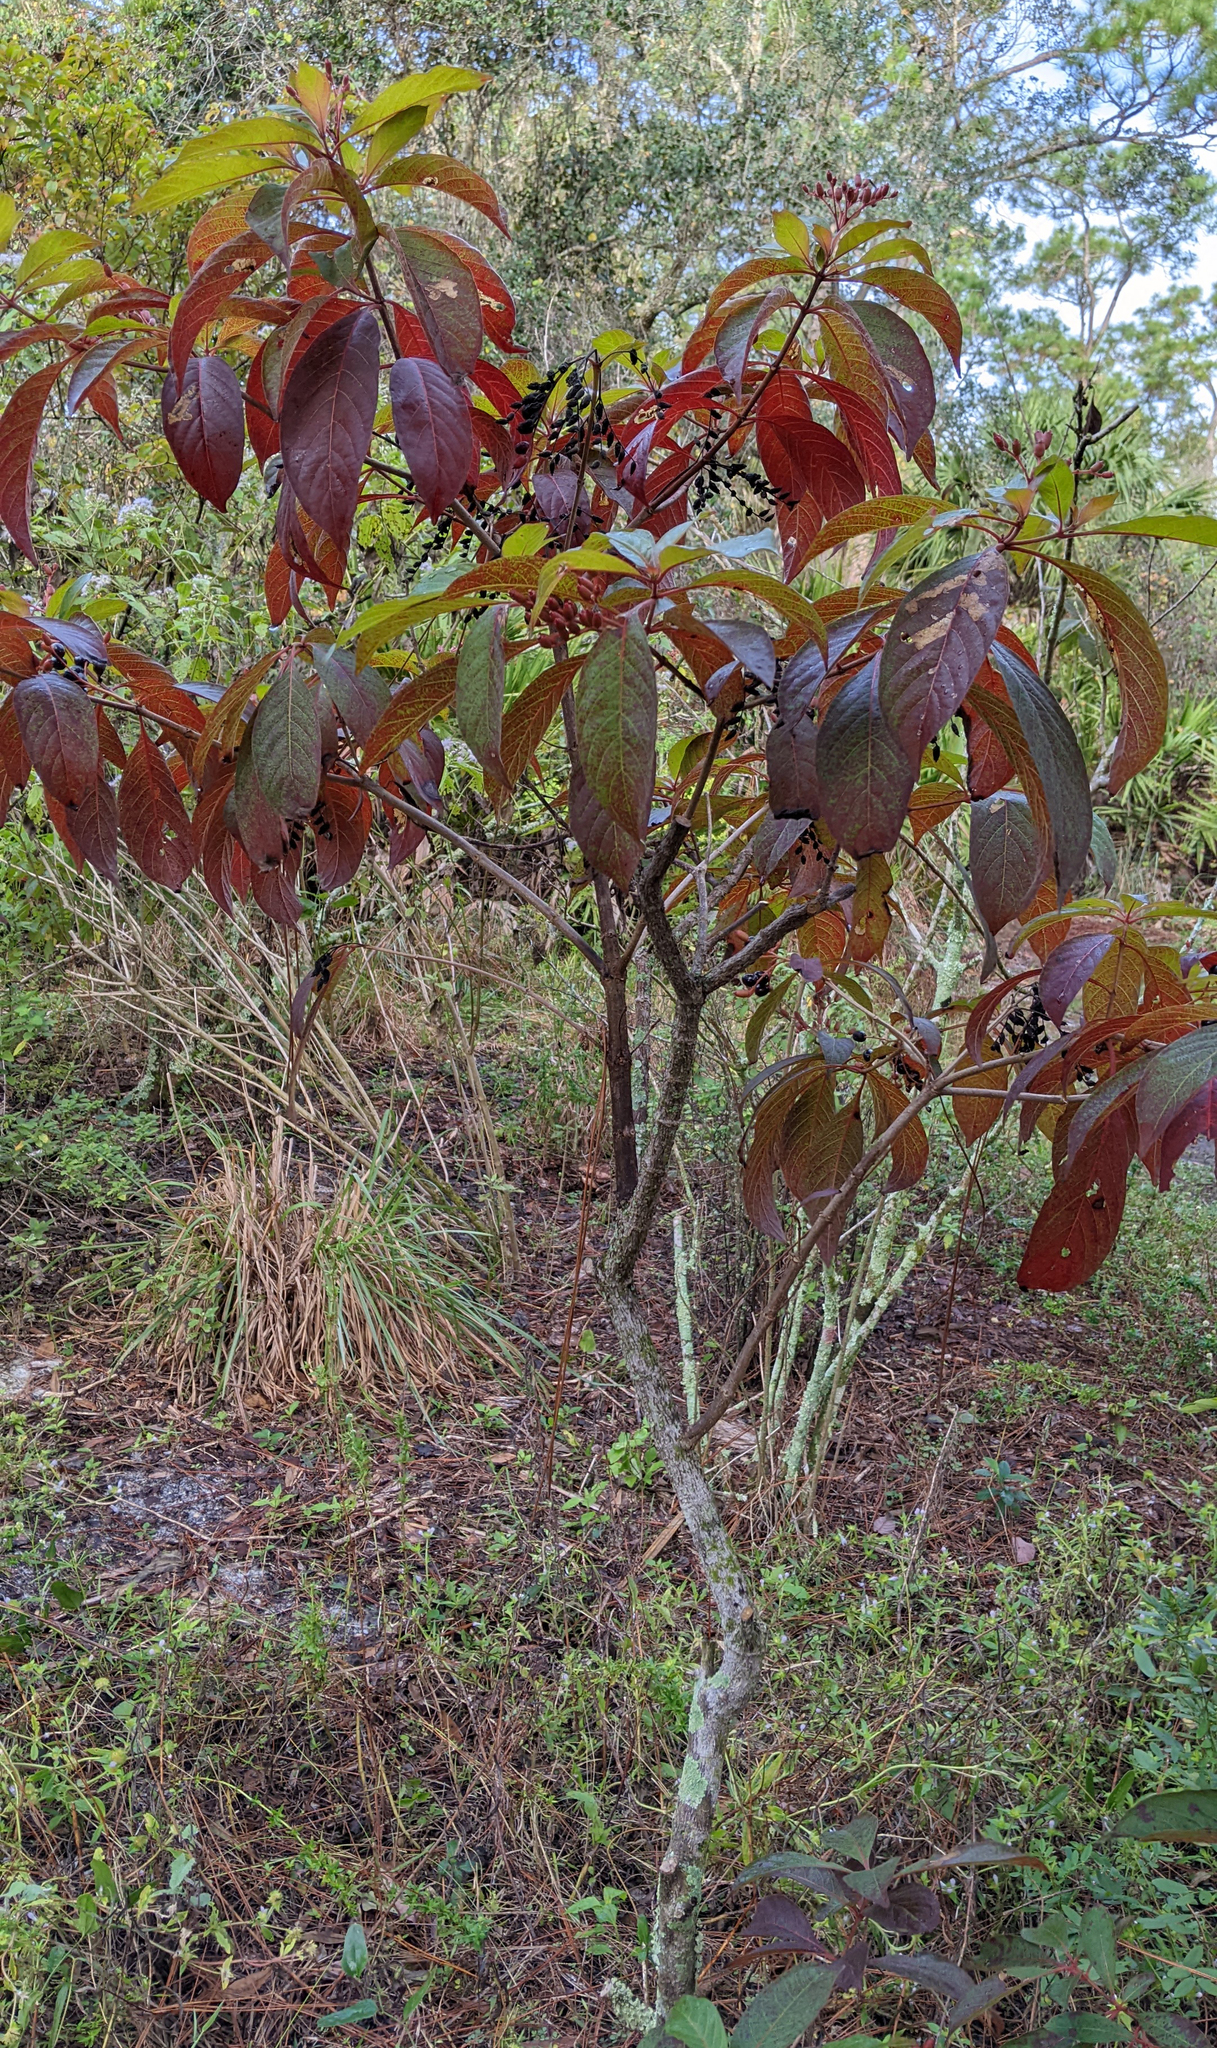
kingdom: Plantae
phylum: Tracheophyta
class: Magnoliopsida
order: Gentianales
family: Rubiaceae
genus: Hamelia
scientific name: Hamelia patens
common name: Redhead
